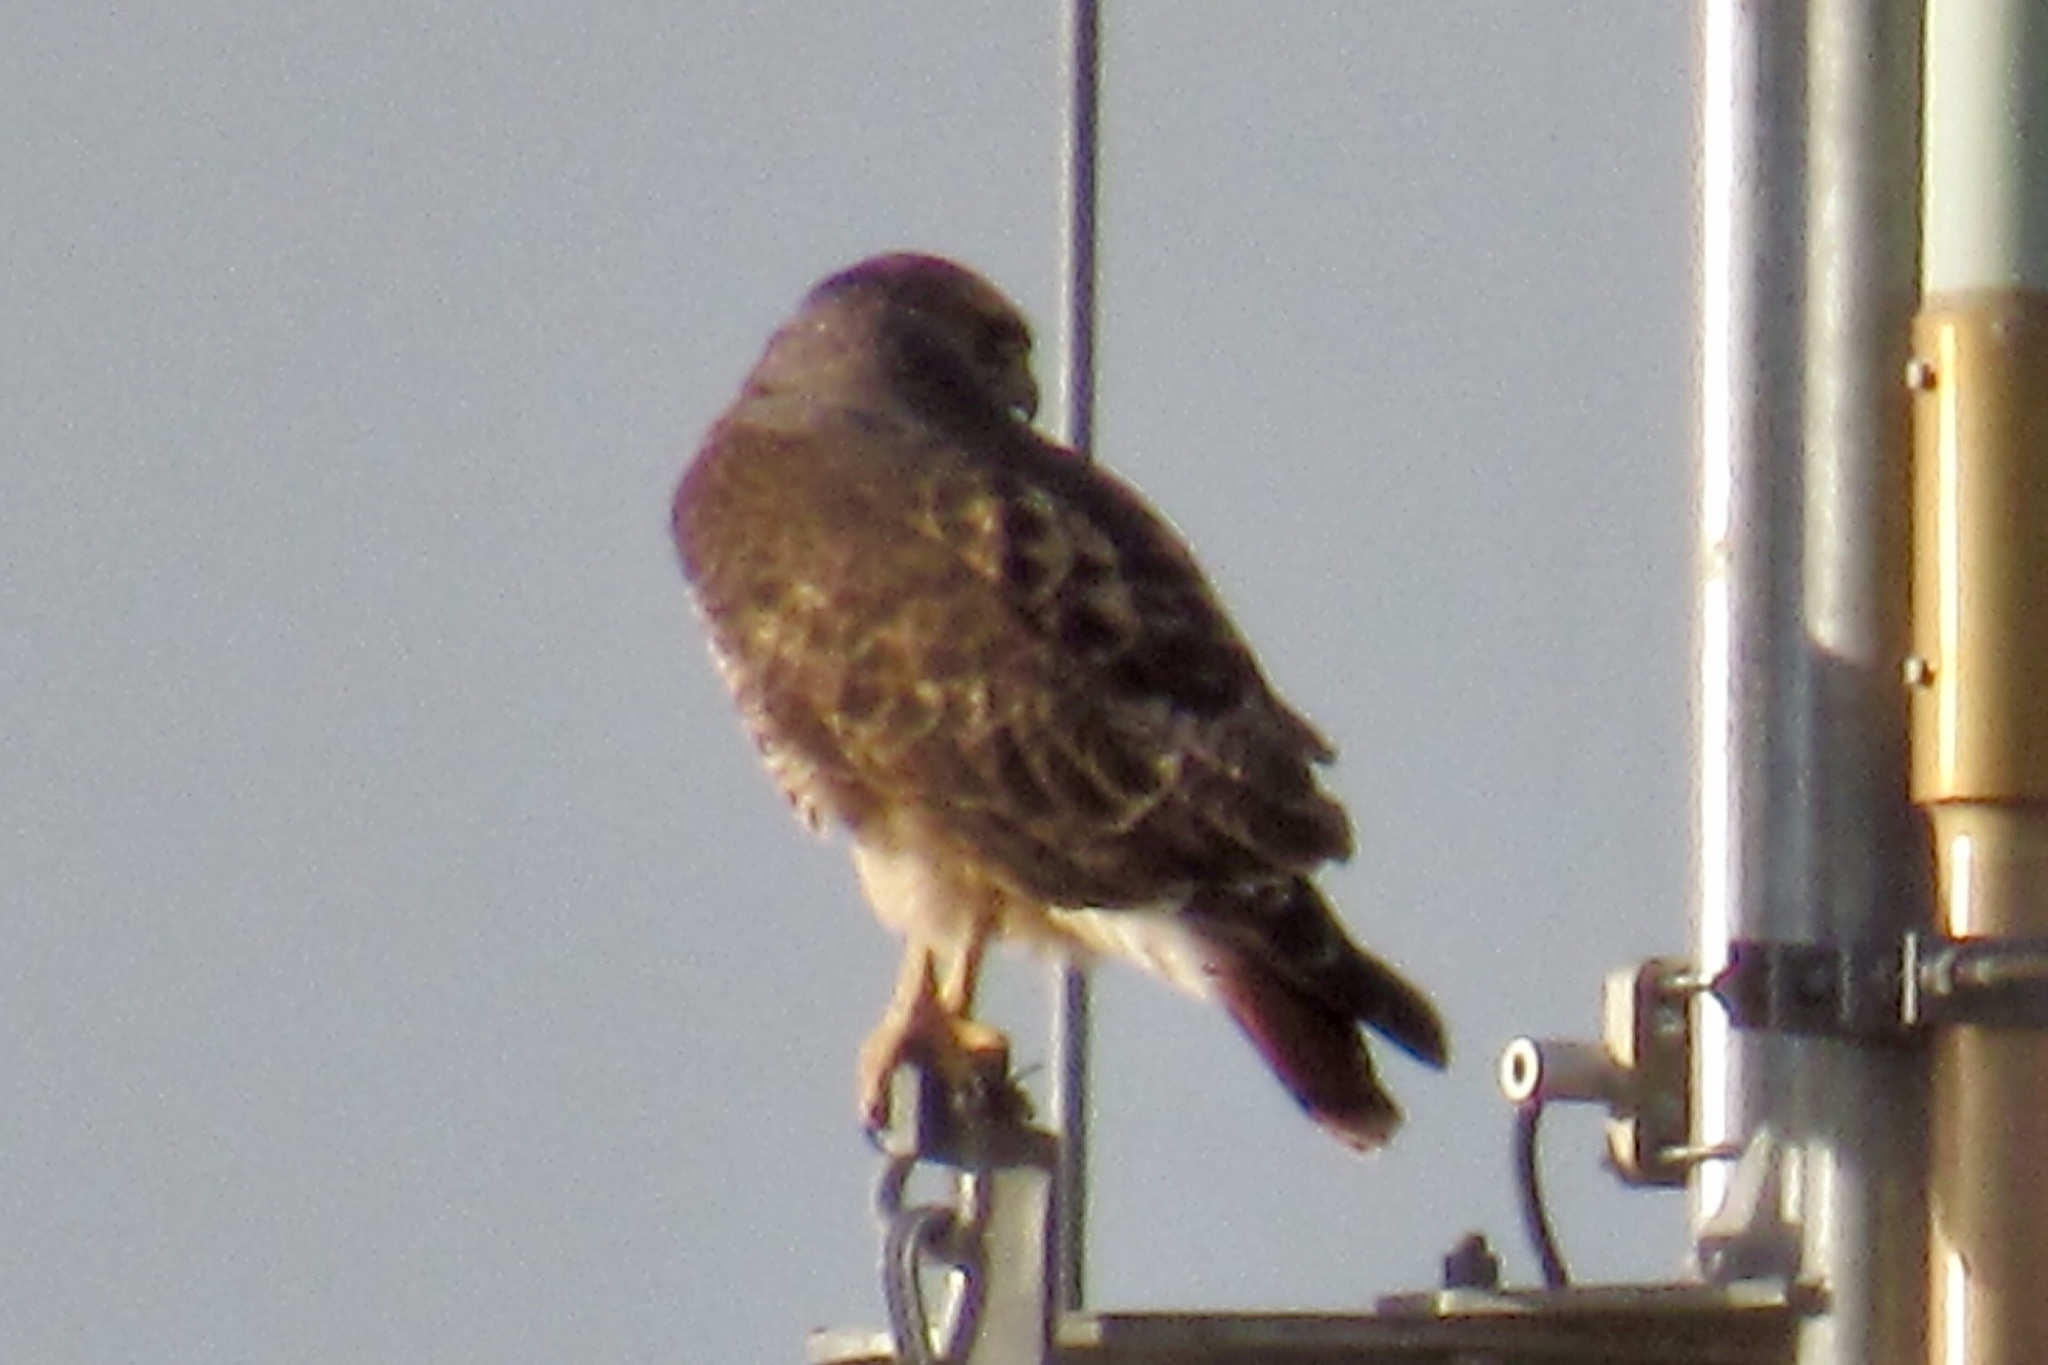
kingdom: Animalia
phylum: Chordata
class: Aves
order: Accipitriformes
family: Accipitridae
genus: Buteo
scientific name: Buteo jamaicensis
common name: Red-tailed hawk
